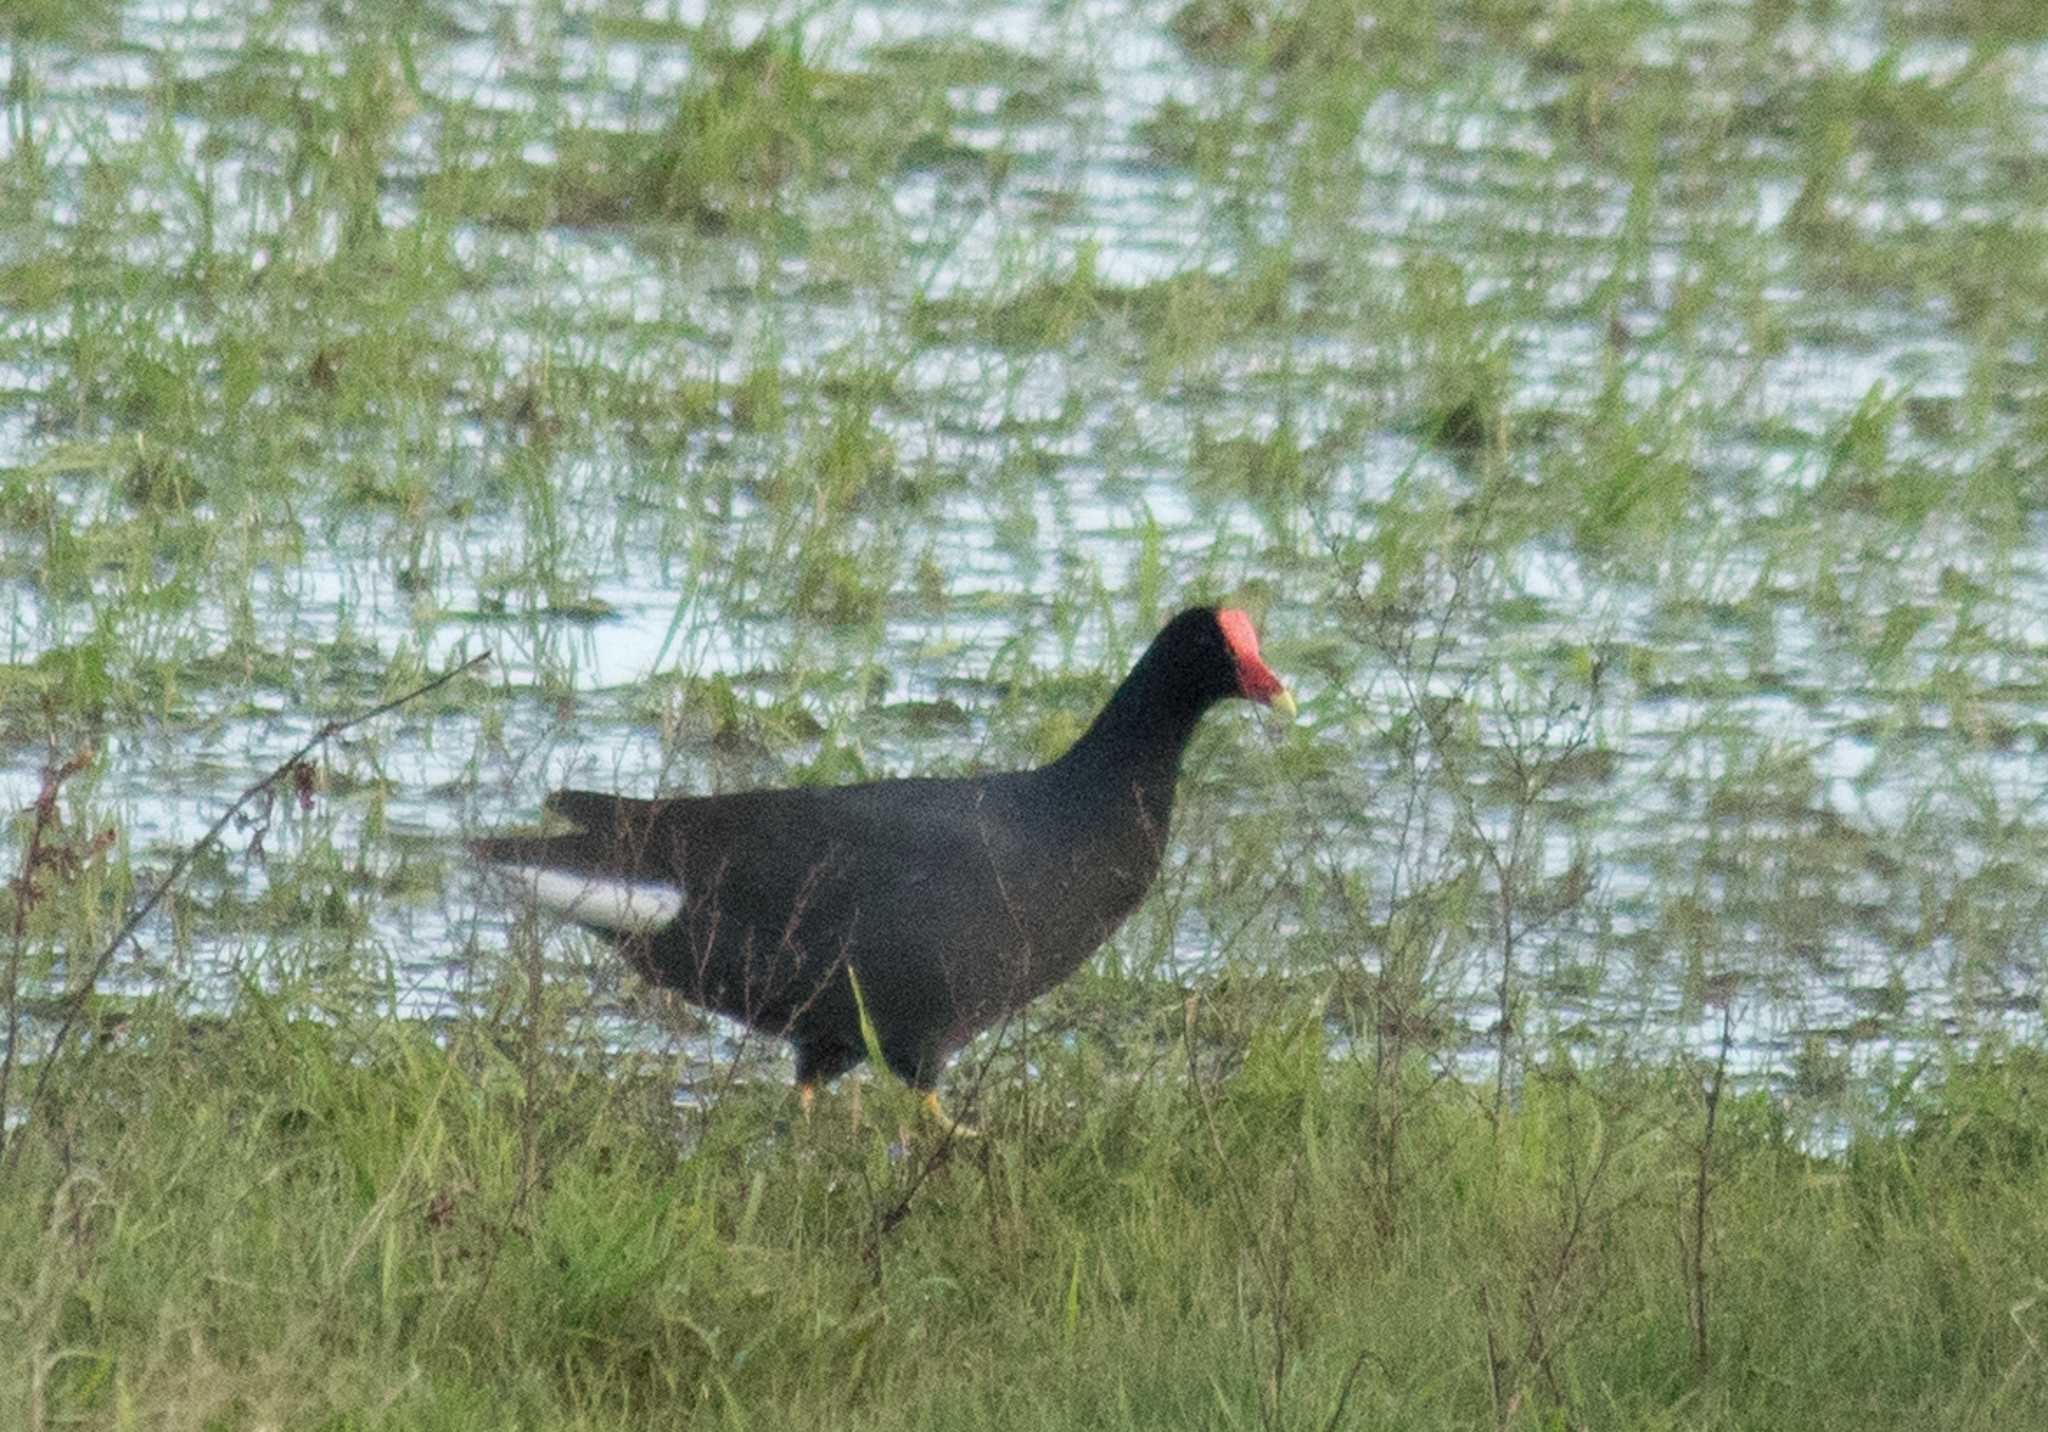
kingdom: Animalia
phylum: Chordata
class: Aves
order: Gruiformes
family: Rallidae
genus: Gallinula
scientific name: Gallinula chloropus
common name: Common moorhen
